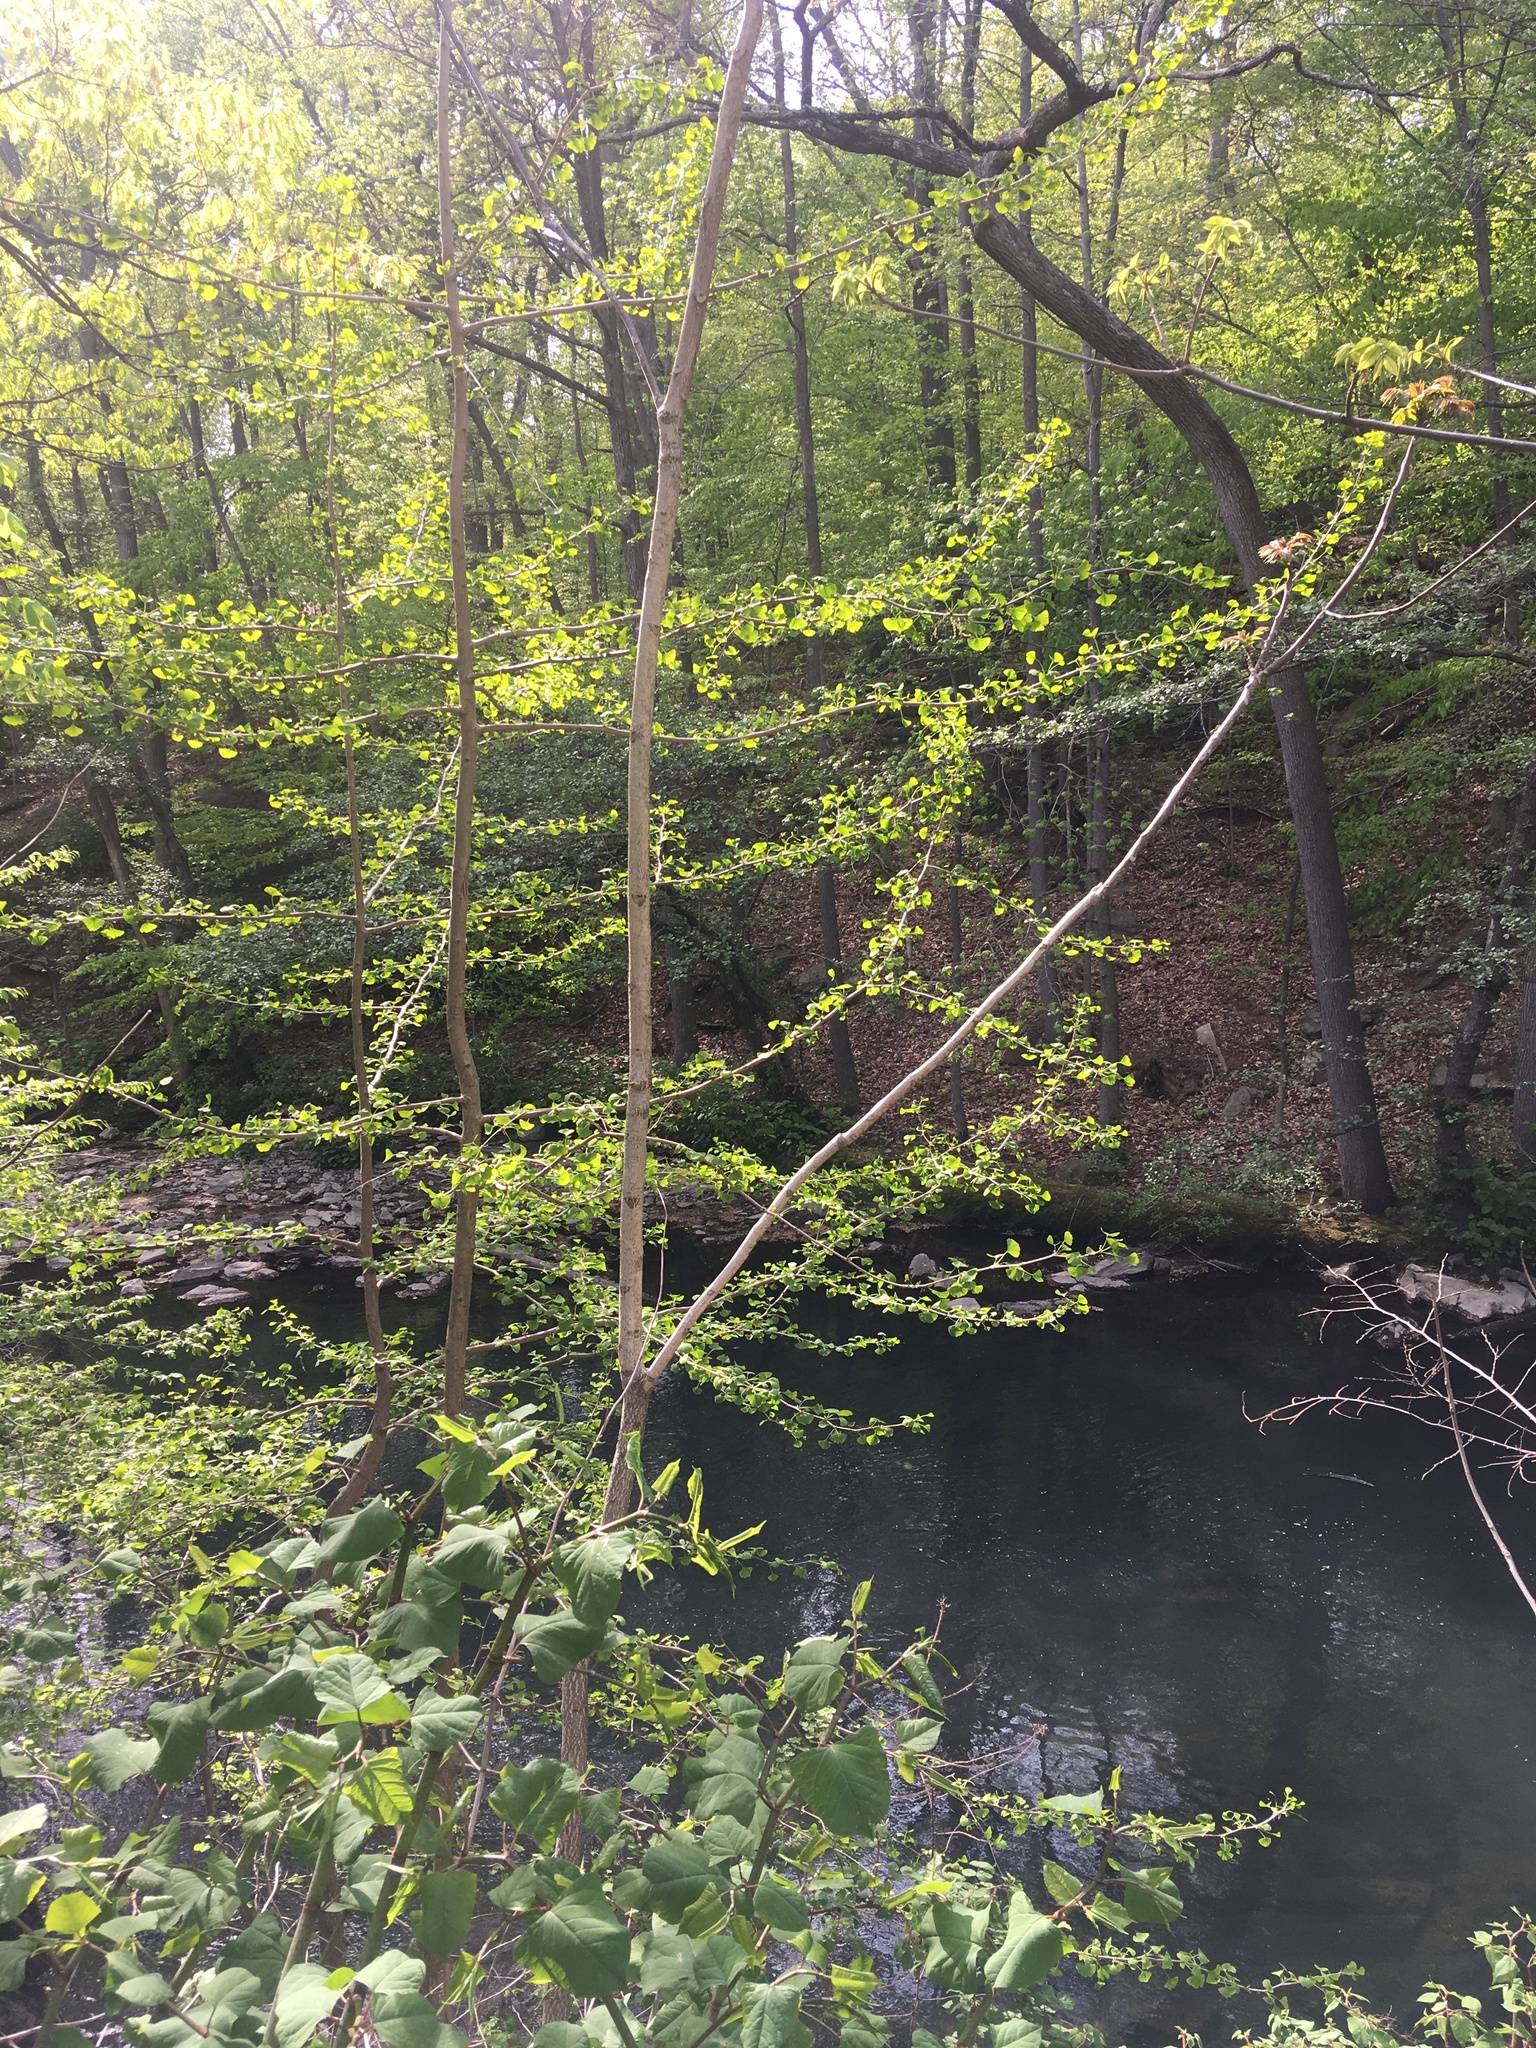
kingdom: Plantae
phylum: Tracheophyta
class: Ginkgoopsida
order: Ginkgoales
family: Ginkgoaceae
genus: Ginkgo
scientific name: Ginkgo biloba
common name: Ginkgo
